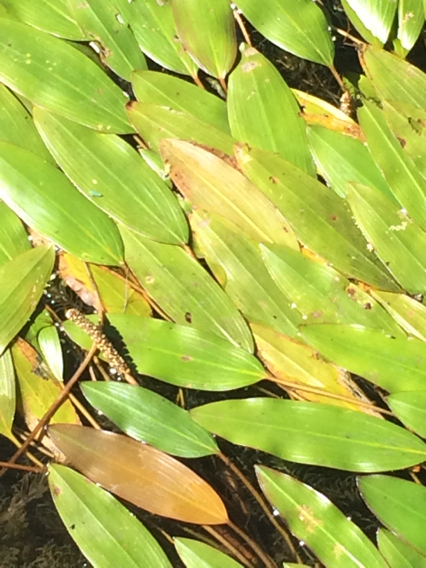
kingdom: Plantae
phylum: Tracheophyta
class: Liliopsida
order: Alismatales
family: Potamogetonaceae
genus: Potamogeton
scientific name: Potamogeton nodosus
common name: Loddon pondweed
